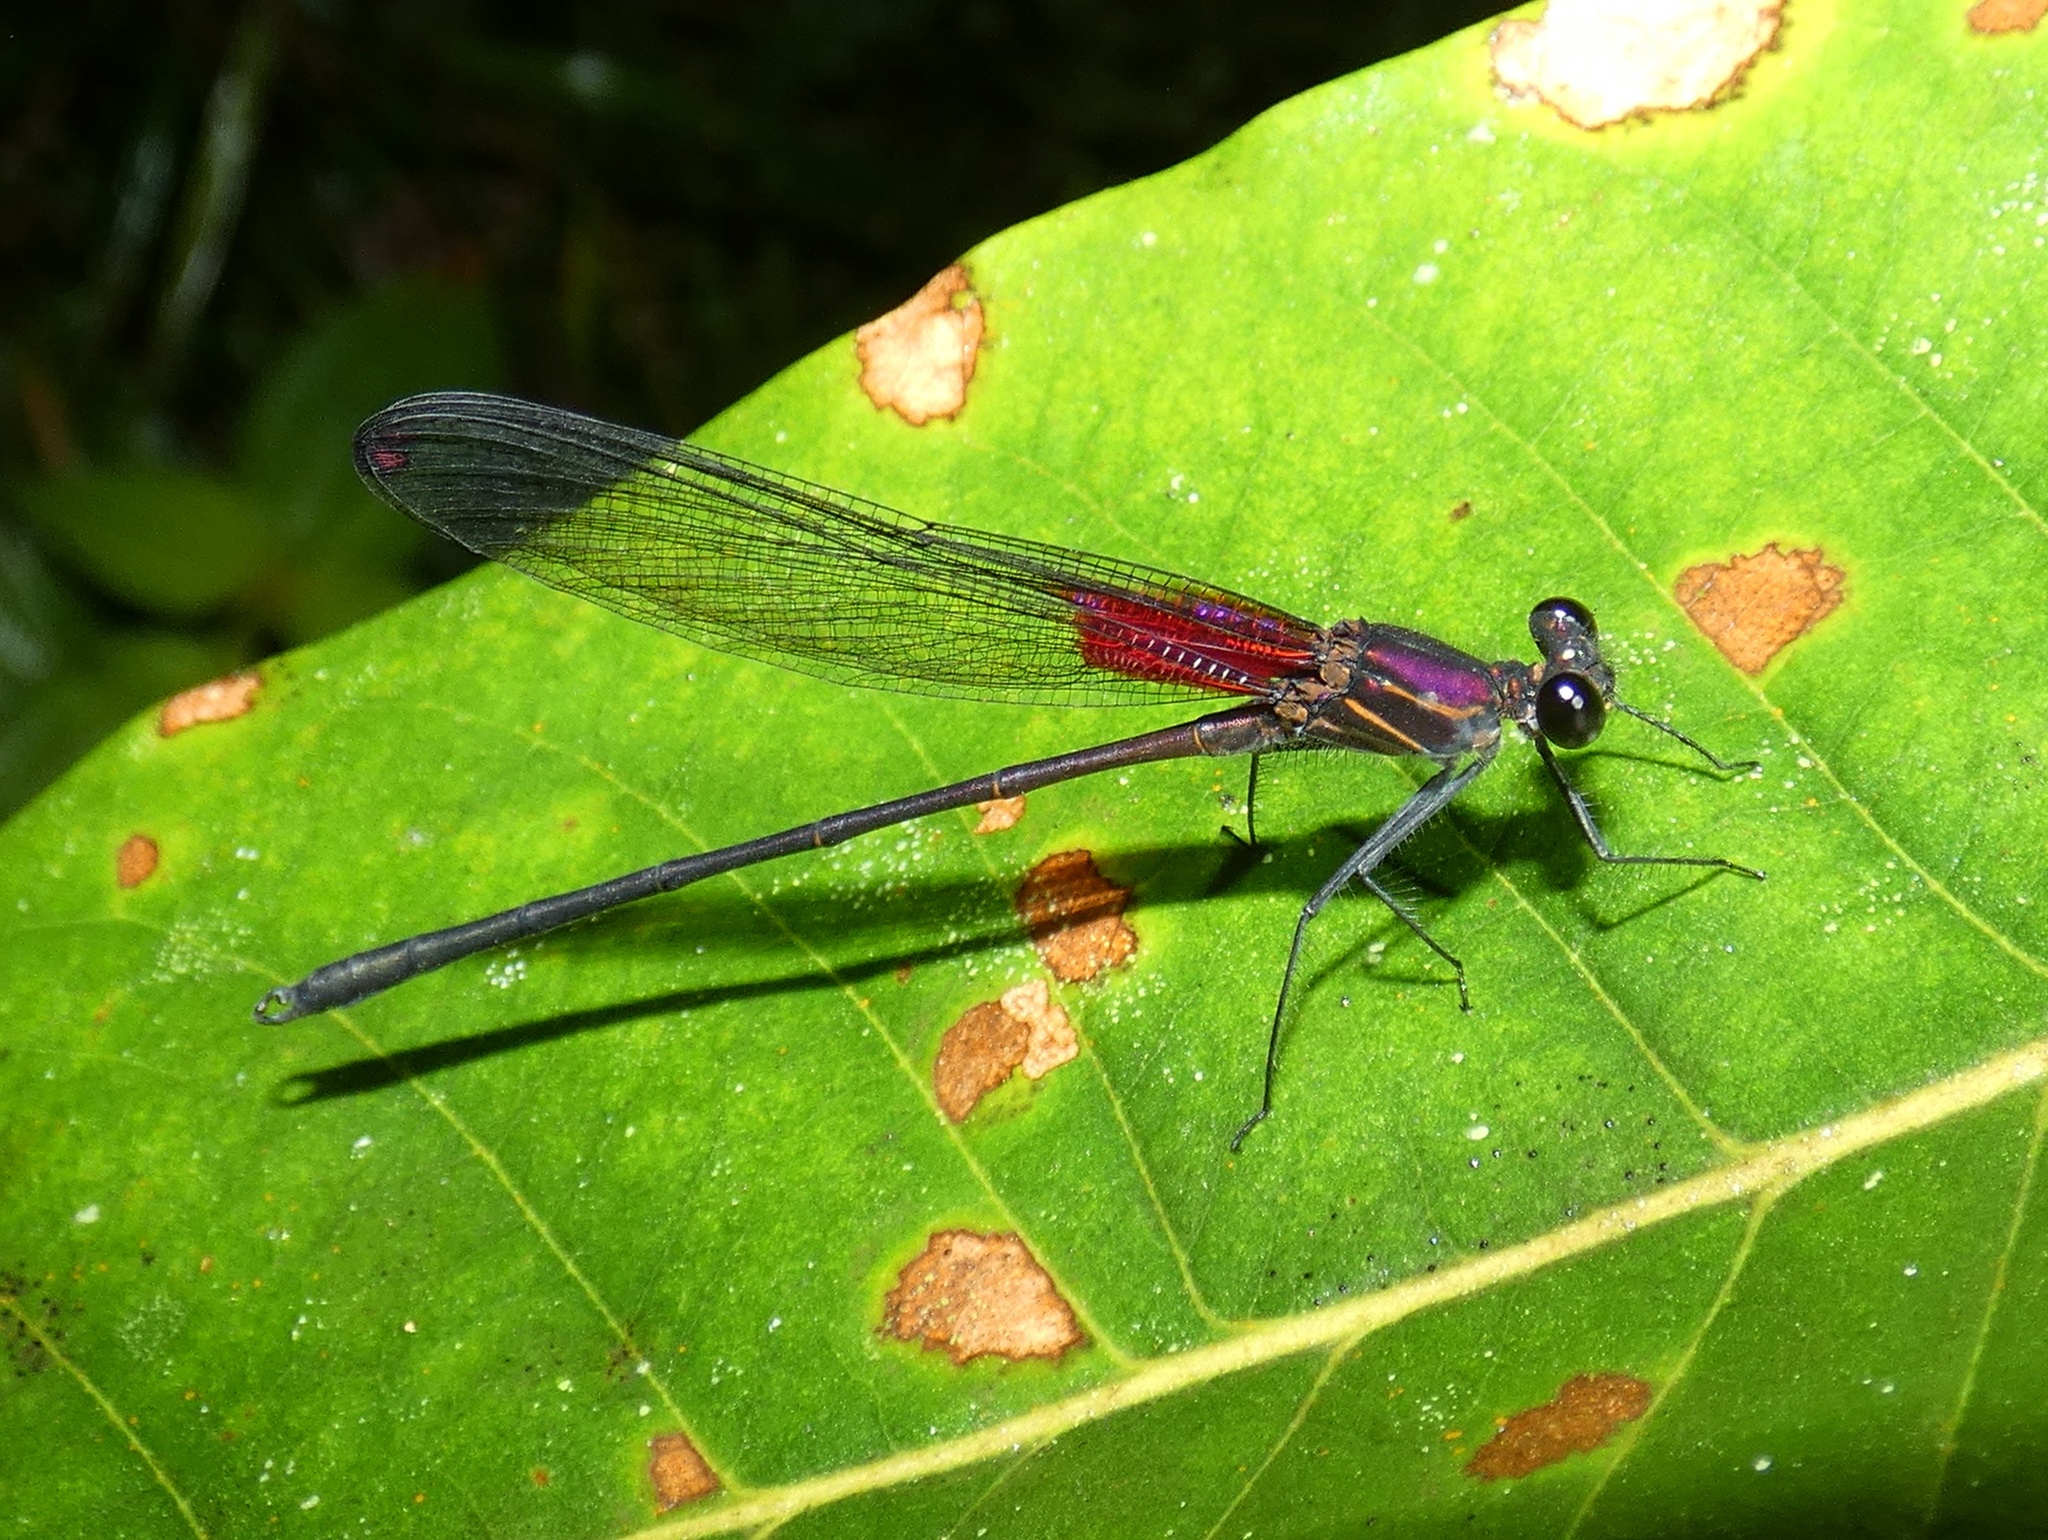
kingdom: Animalia
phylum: Arthropoda
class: Insecta
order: Odonata
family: Calopterygidae
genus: Hetaerina
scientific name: Hetaerina occisa
